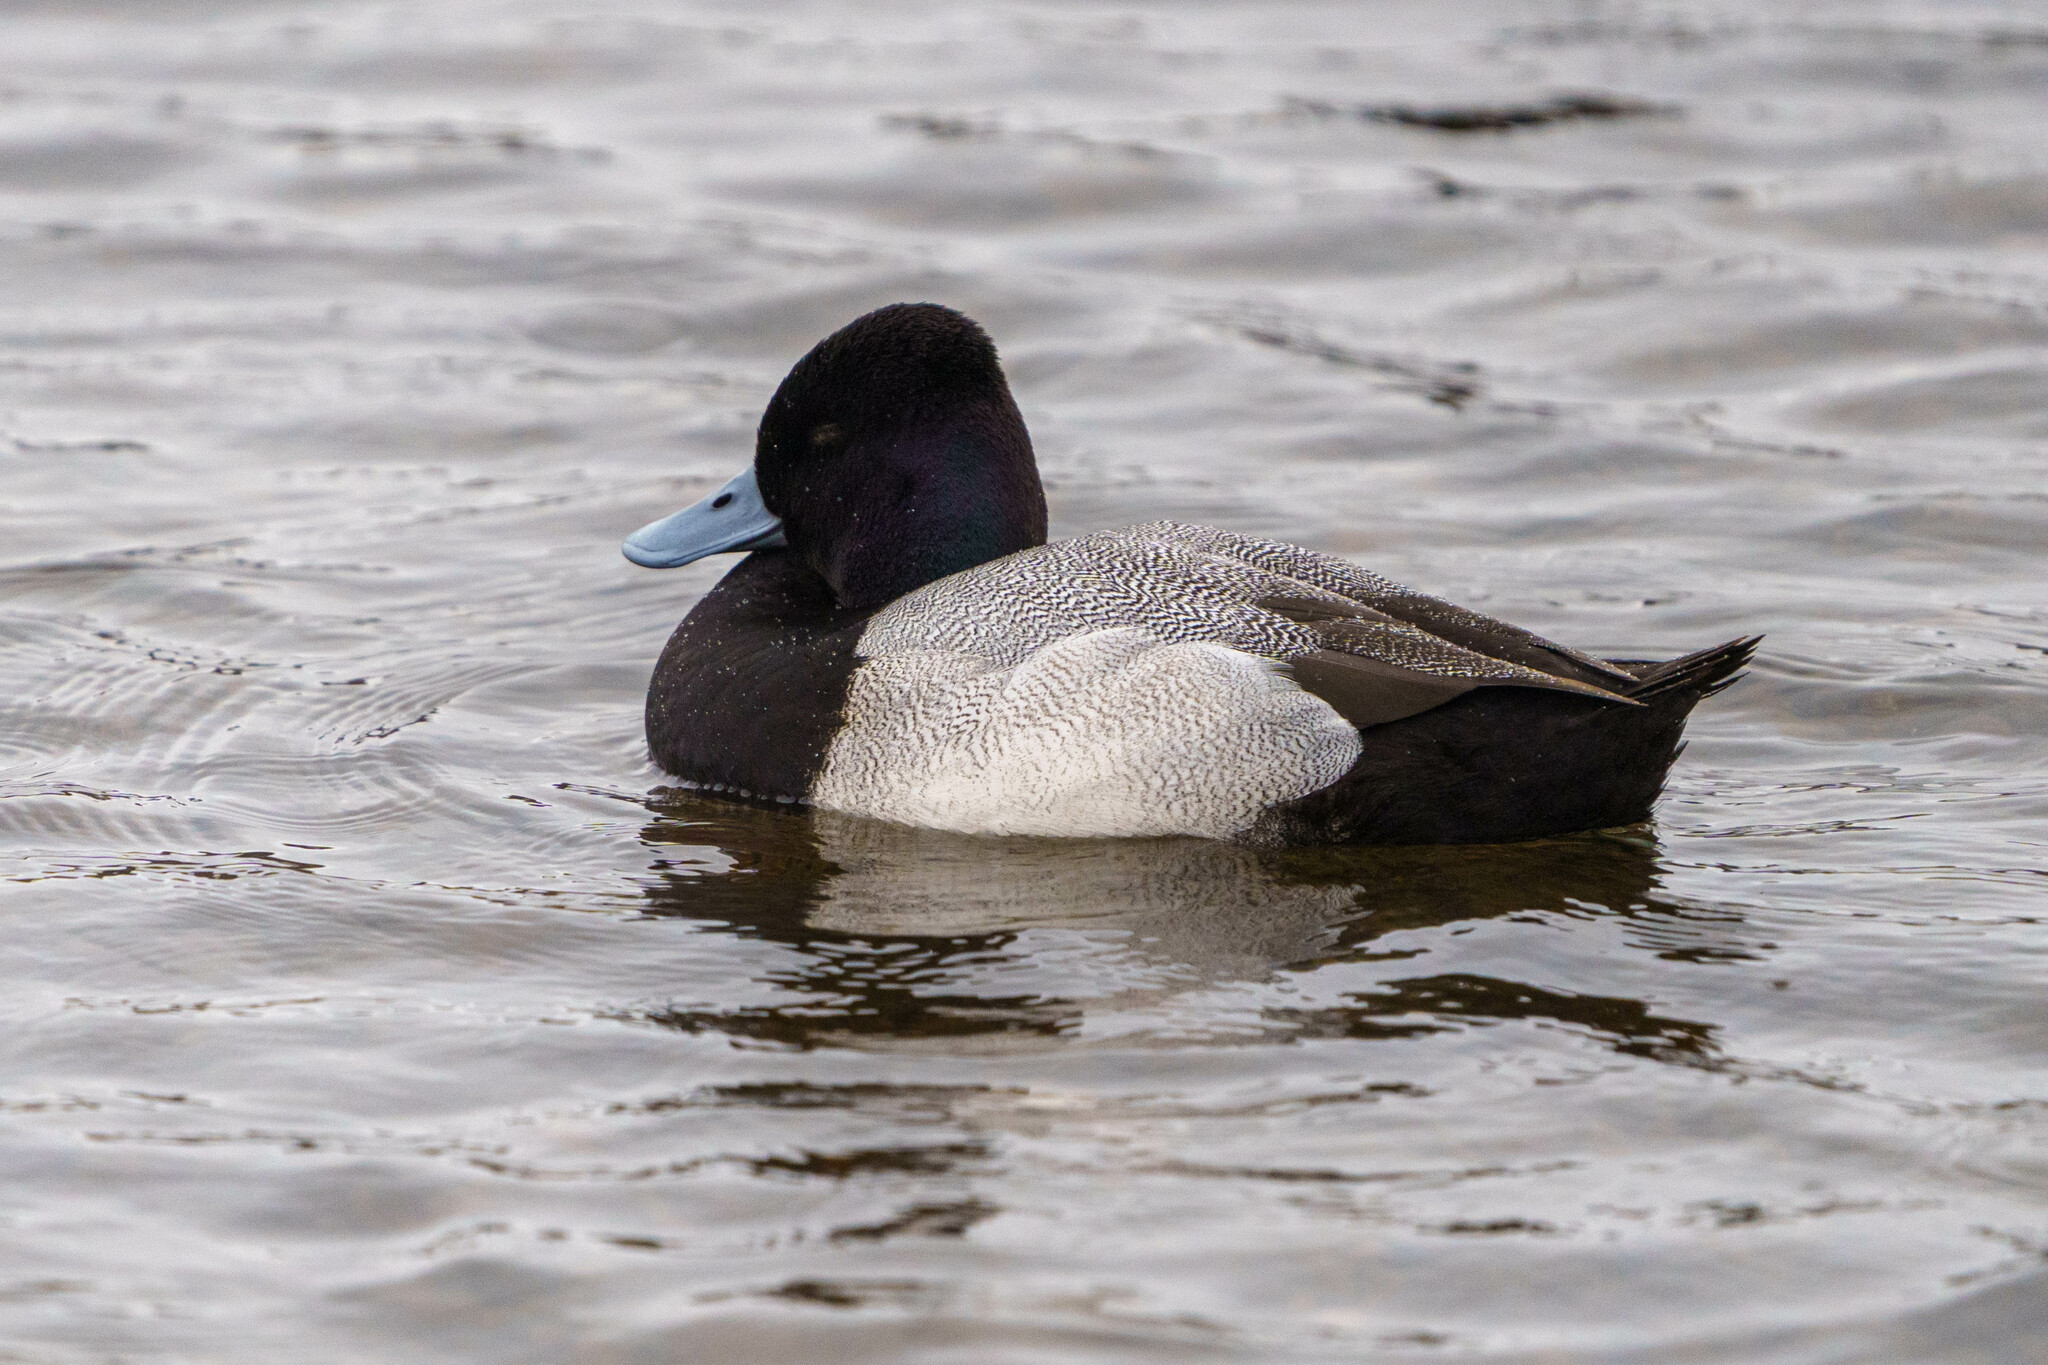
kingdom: Animalia
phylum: Chordata
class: Aves
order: Anseriformes
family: Anatidae
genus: Aythya
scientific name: Aythya affinis
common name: Lesser scaup
